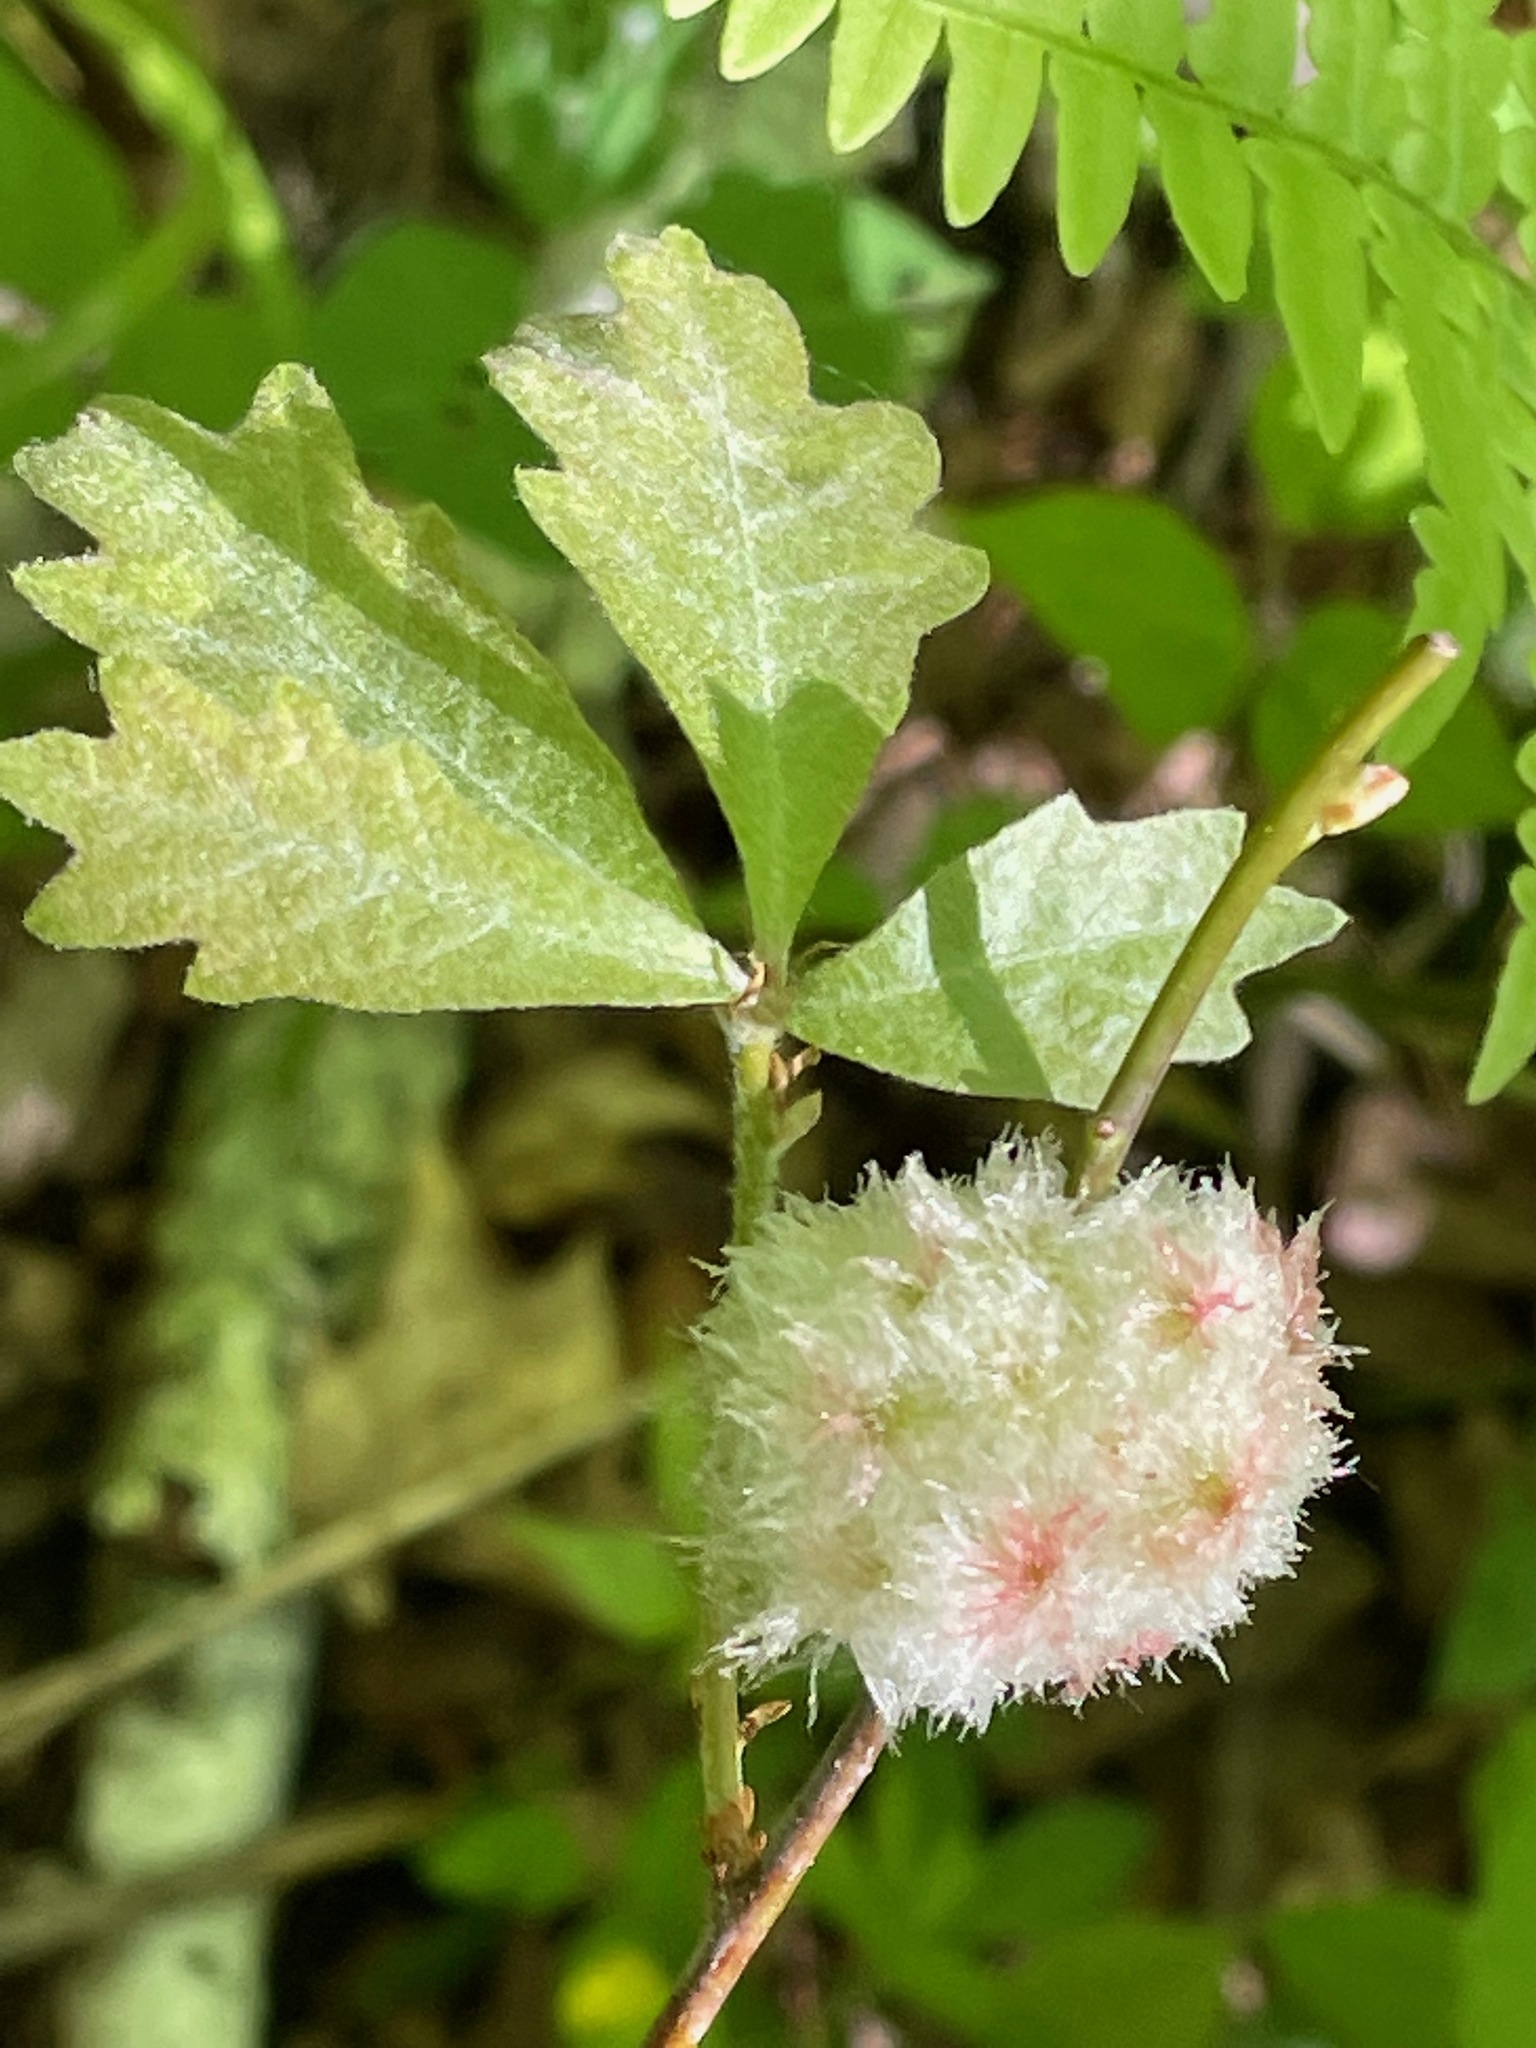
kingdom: Animalia
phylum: Arthropoda
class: Insecta
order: Hymenoptera
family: Cynipidae
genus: Callirhytis
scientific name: Callirhytis
